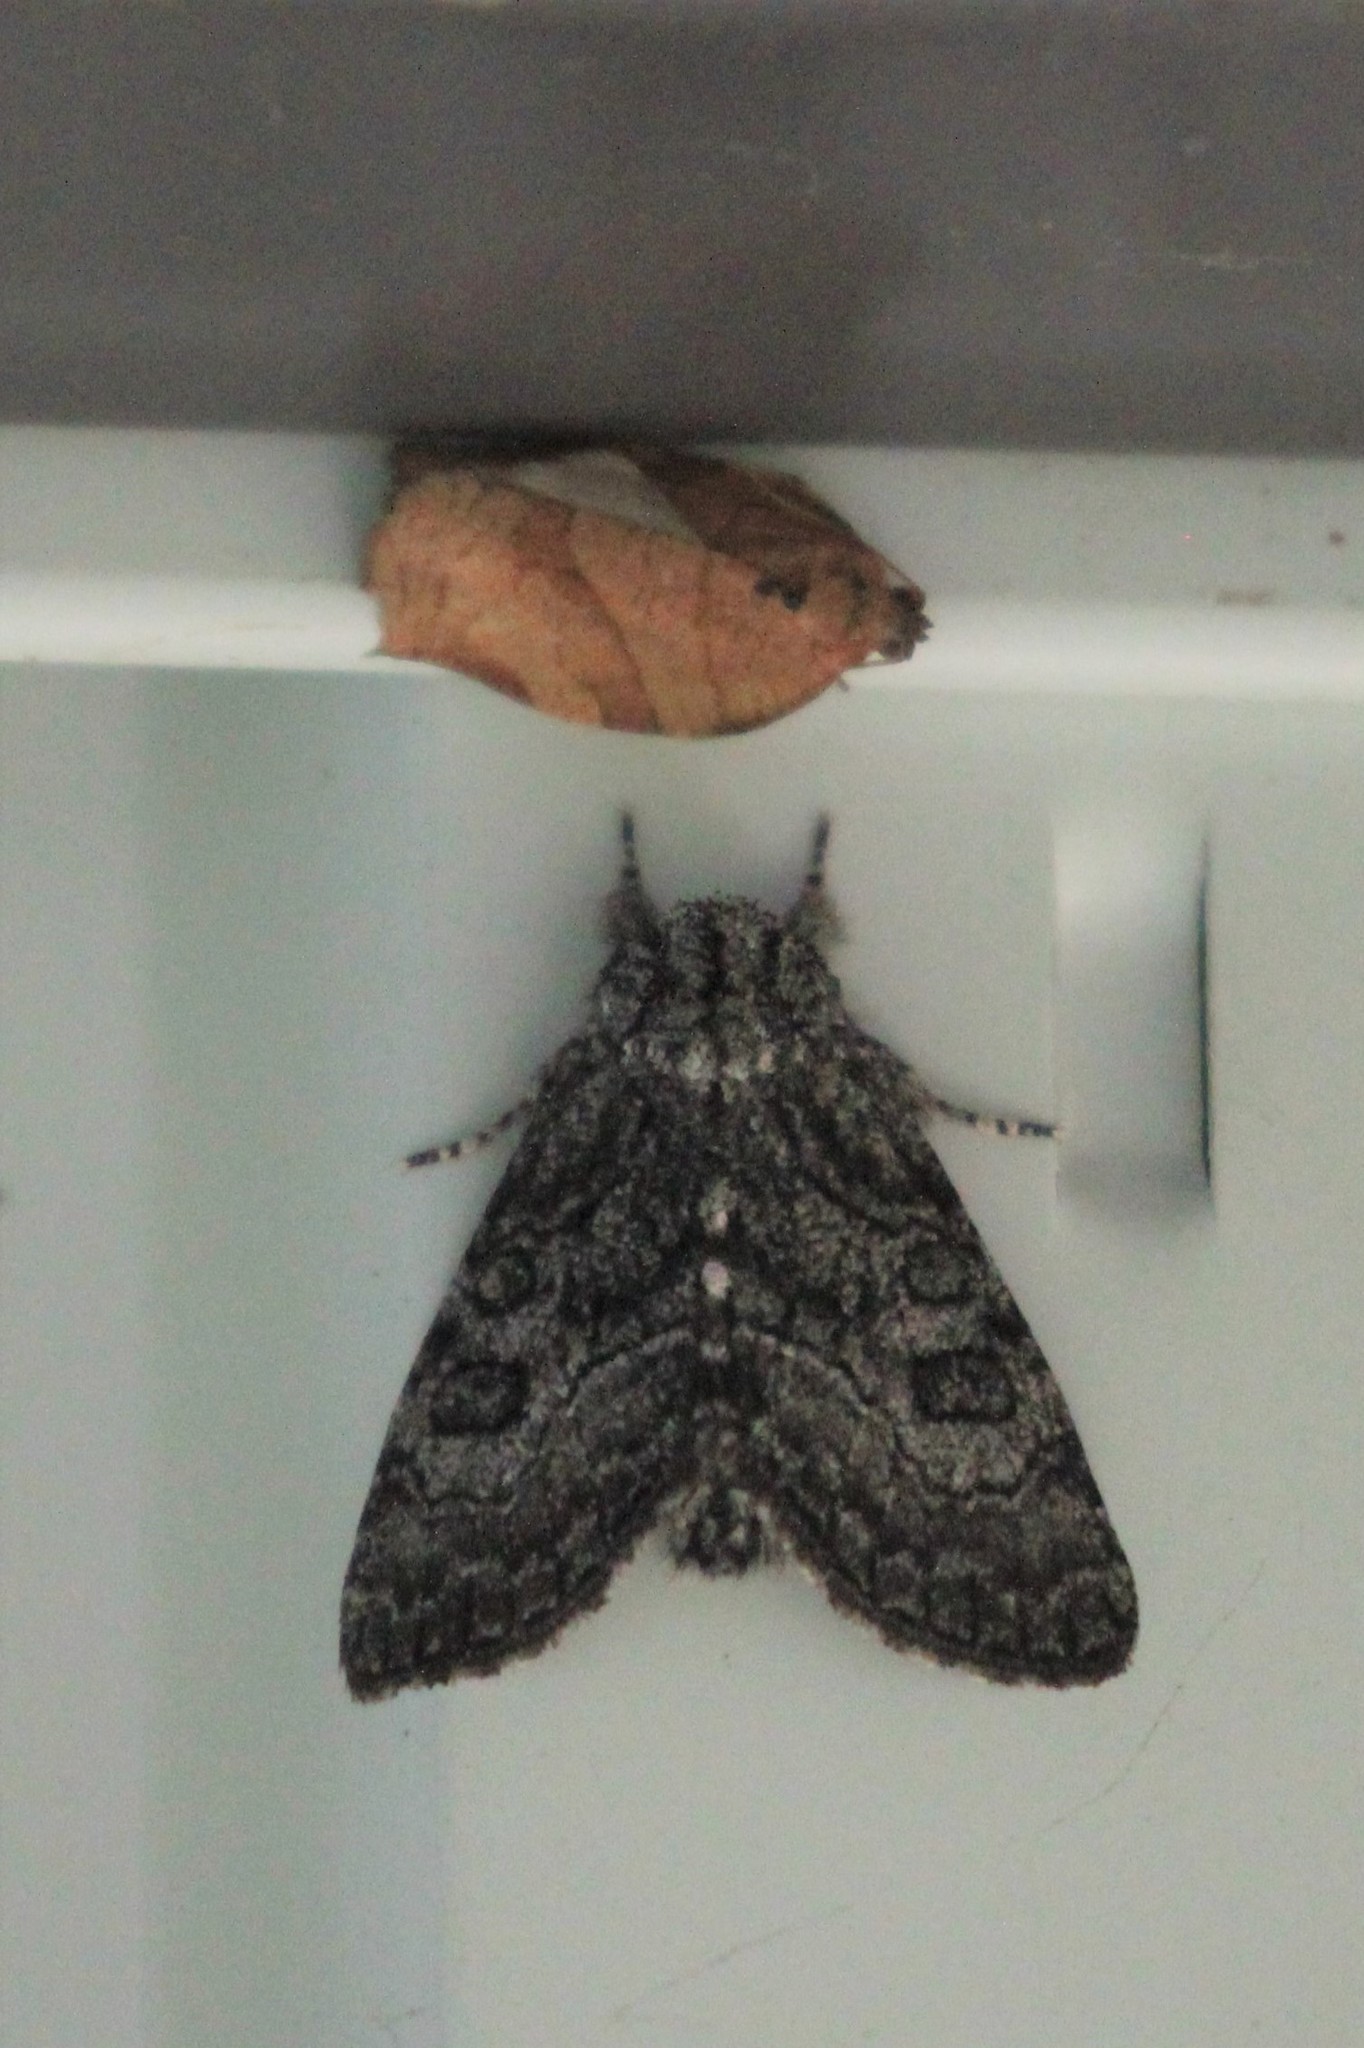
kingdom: Animalia
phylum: Arthropoda
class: Insecta
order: Lepidoptera
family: Noctuidae
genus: Raphia
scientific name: Raphia frater
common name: Brother
